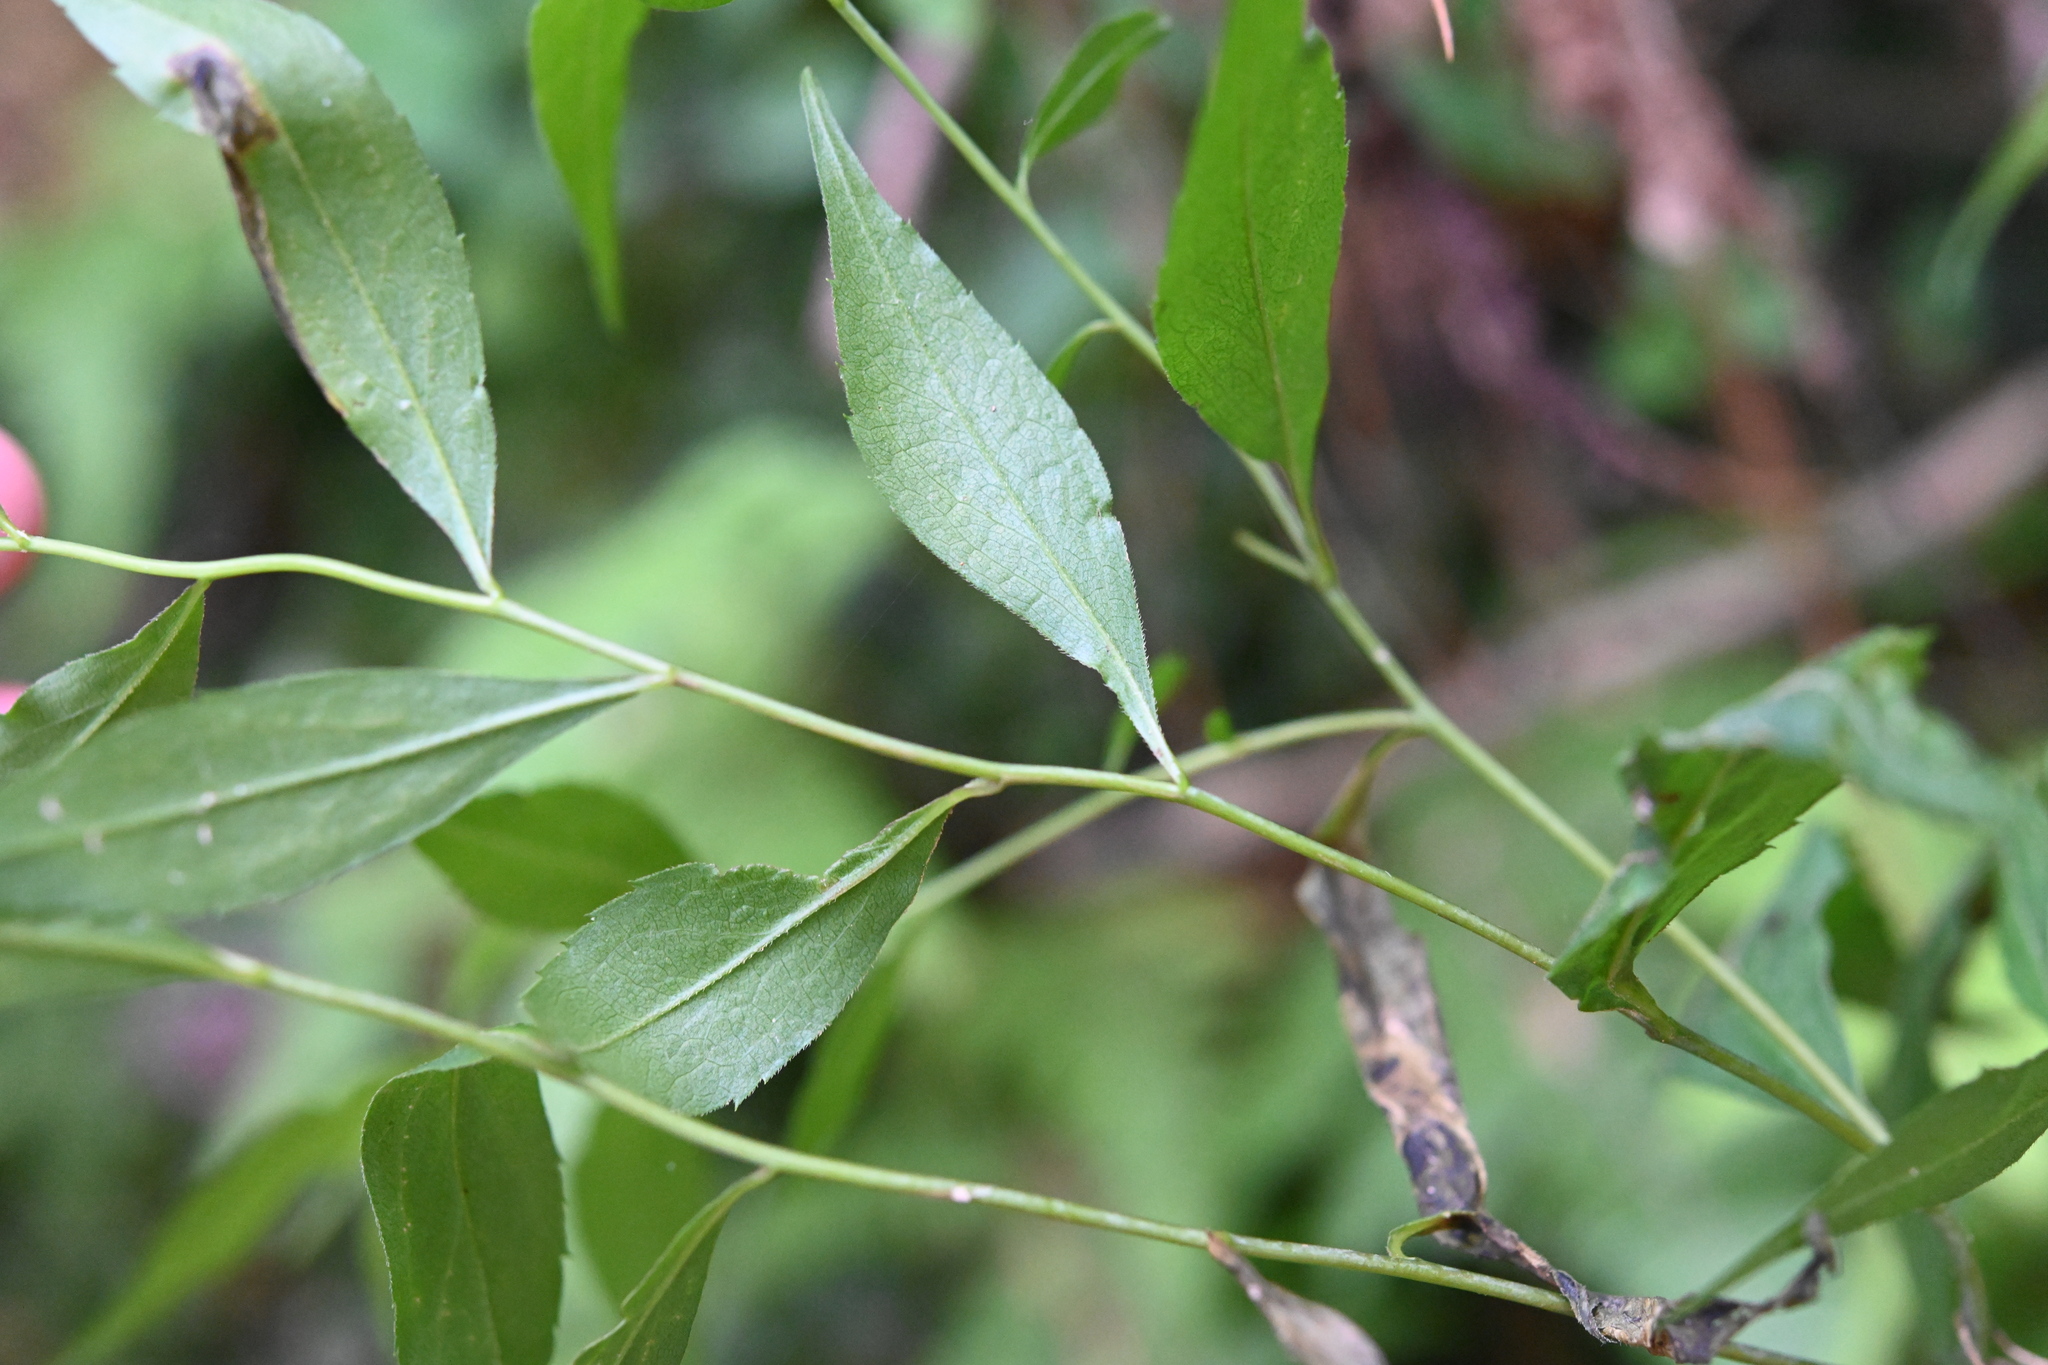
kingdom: Plantae
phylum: Tracheophyta
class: Magnoliopsida
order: Asterales
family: Asteraceae
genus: Solidago
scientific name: Solidago caesia
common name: Woodland goldenrod
